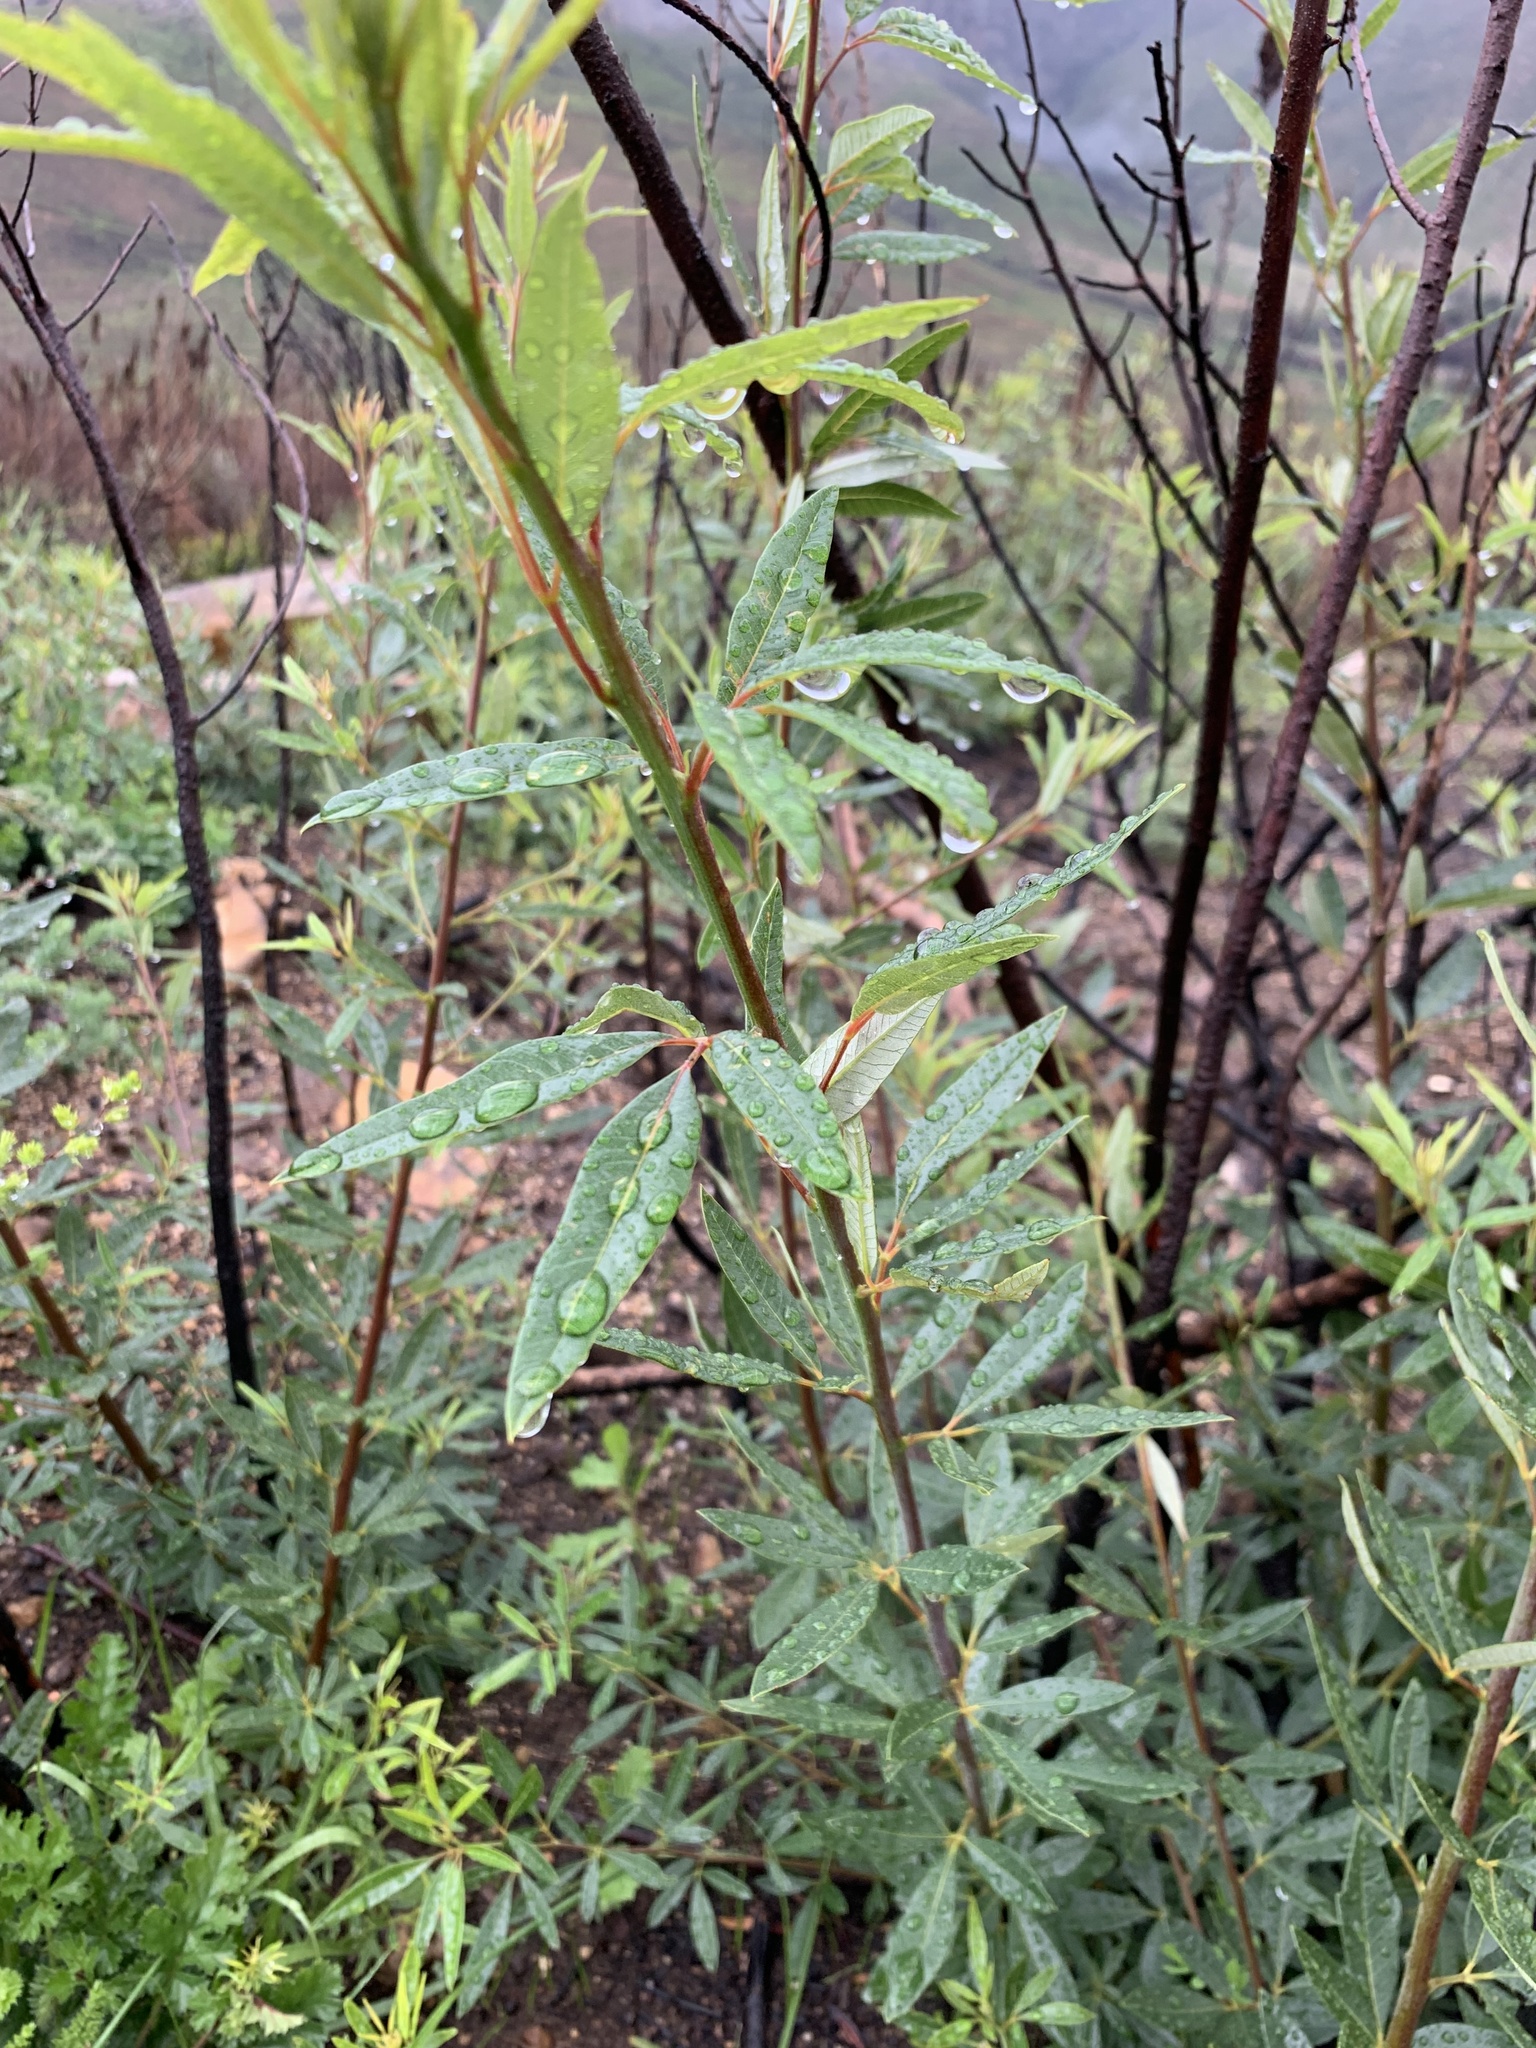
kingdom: Plantae
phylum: Tracheophyta
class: Magnoliopsida
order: Sapindales
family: Anacardiaceae
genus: Searsia
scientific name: Searsia angustifolia
